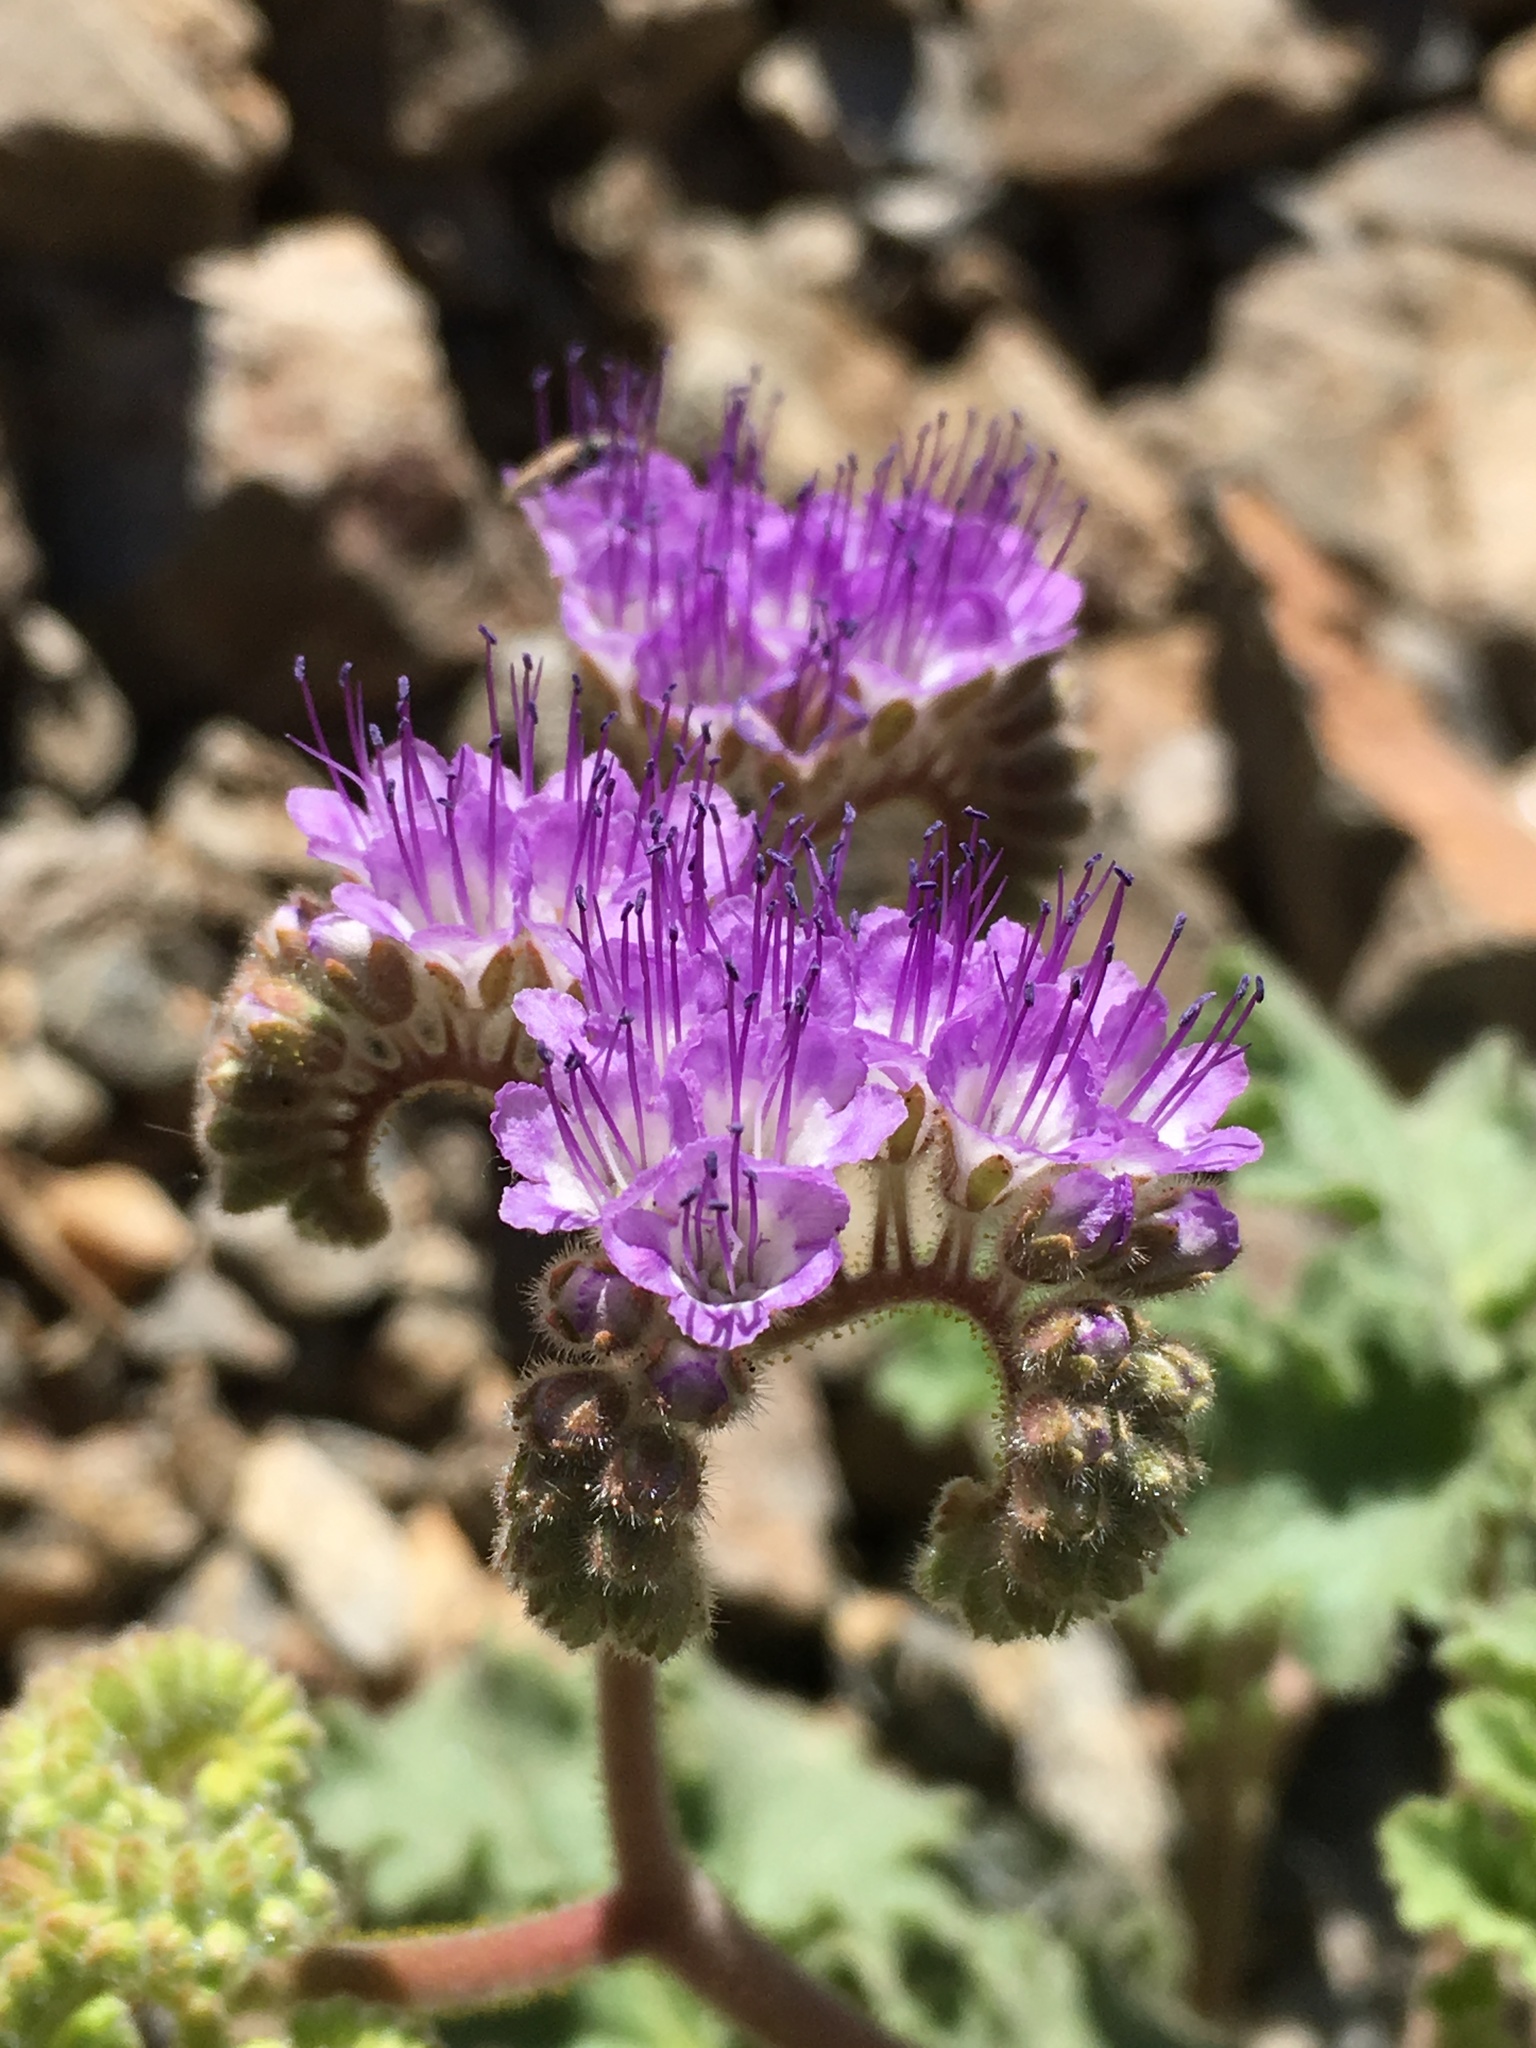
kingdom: Plantae
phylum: Tracheophyta
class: Magnoliopsida
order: Boraginales
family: Hydrophyllaceae
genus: Phacelia
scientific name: Phacelia pedicellata
